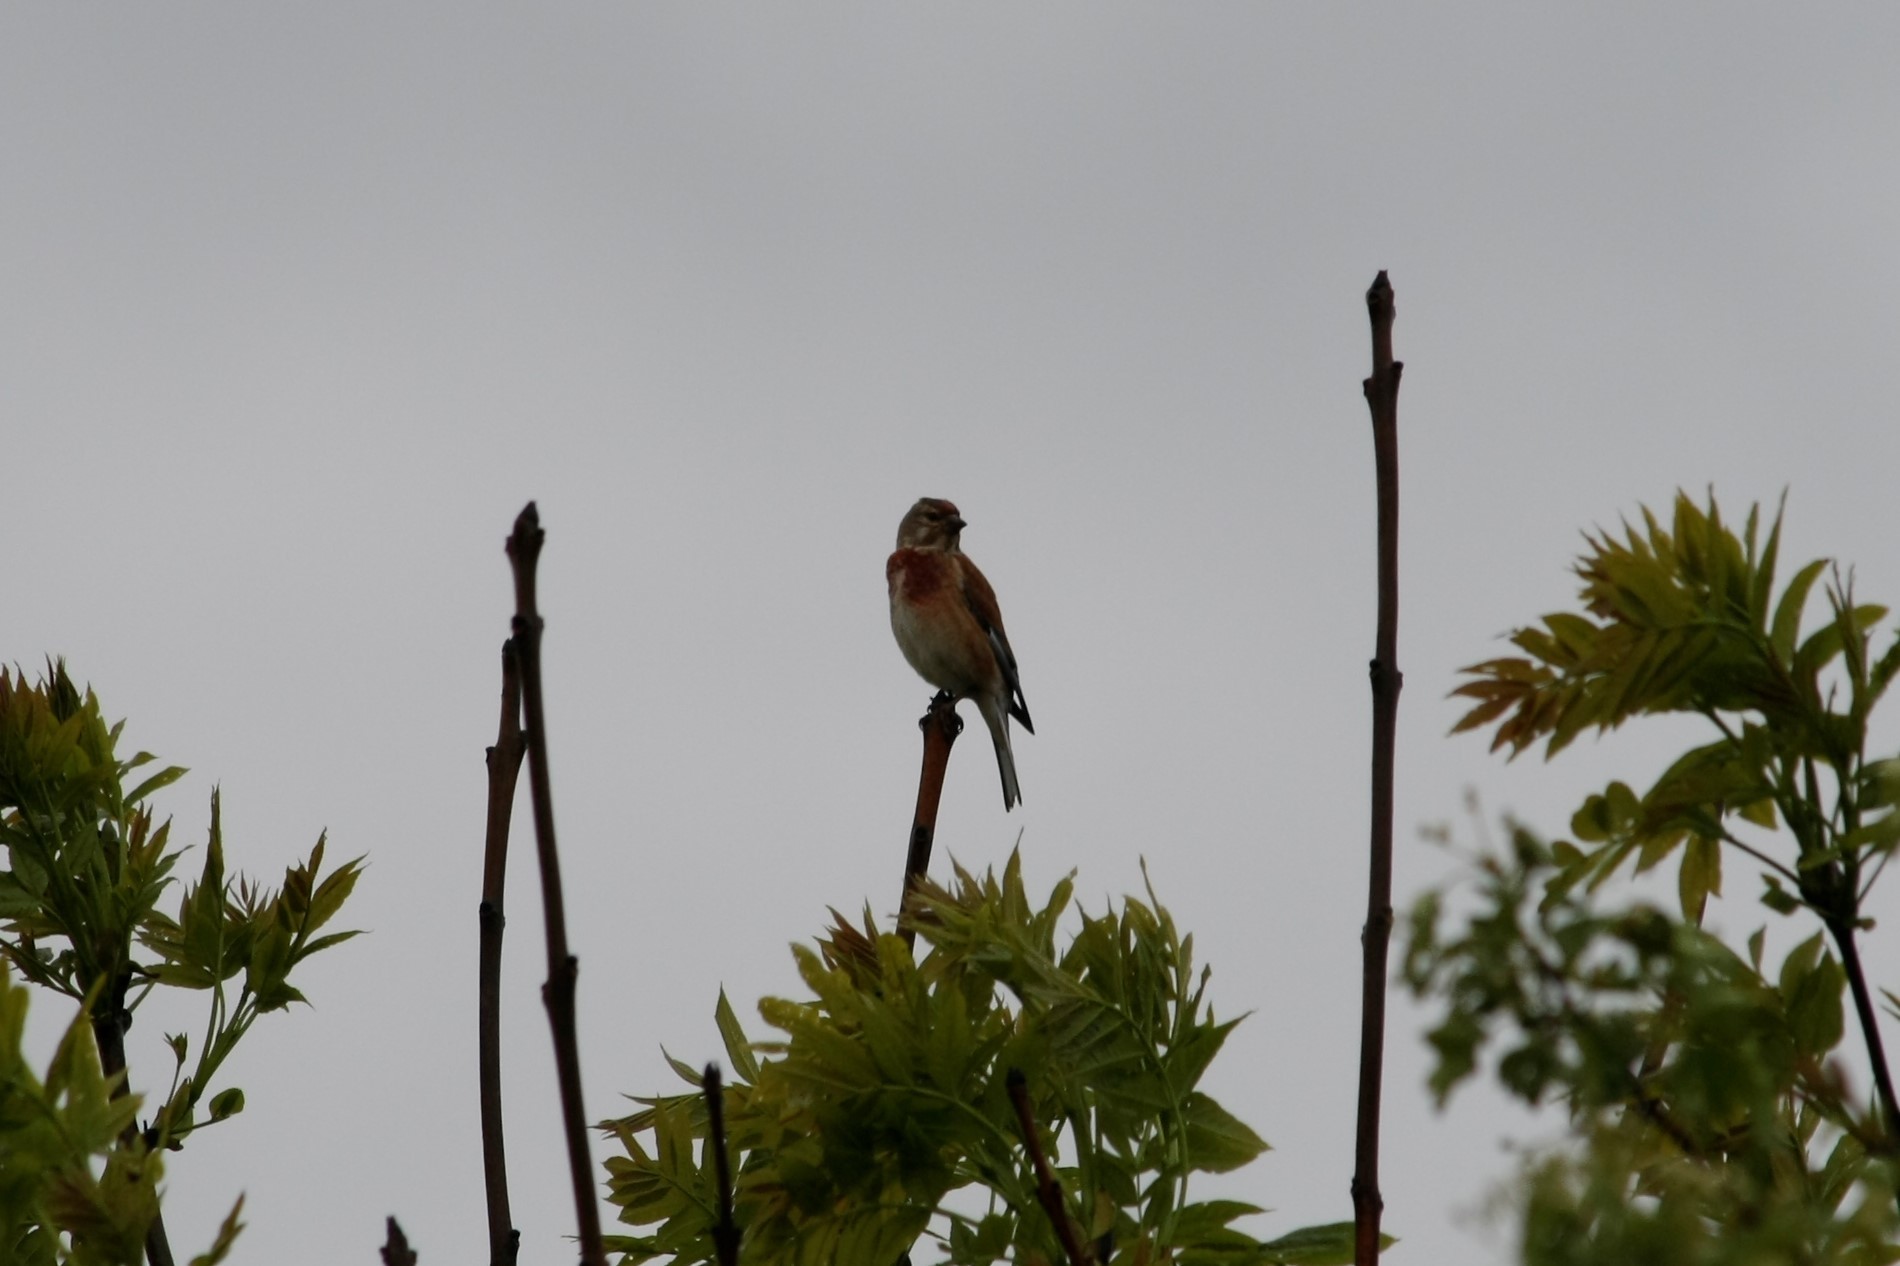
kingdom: Animalia
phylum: Chordata
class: Aves
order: Passeriformes
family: Fringillidae
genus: Linaria
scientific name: Linaria cannabina
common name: Common linnet
